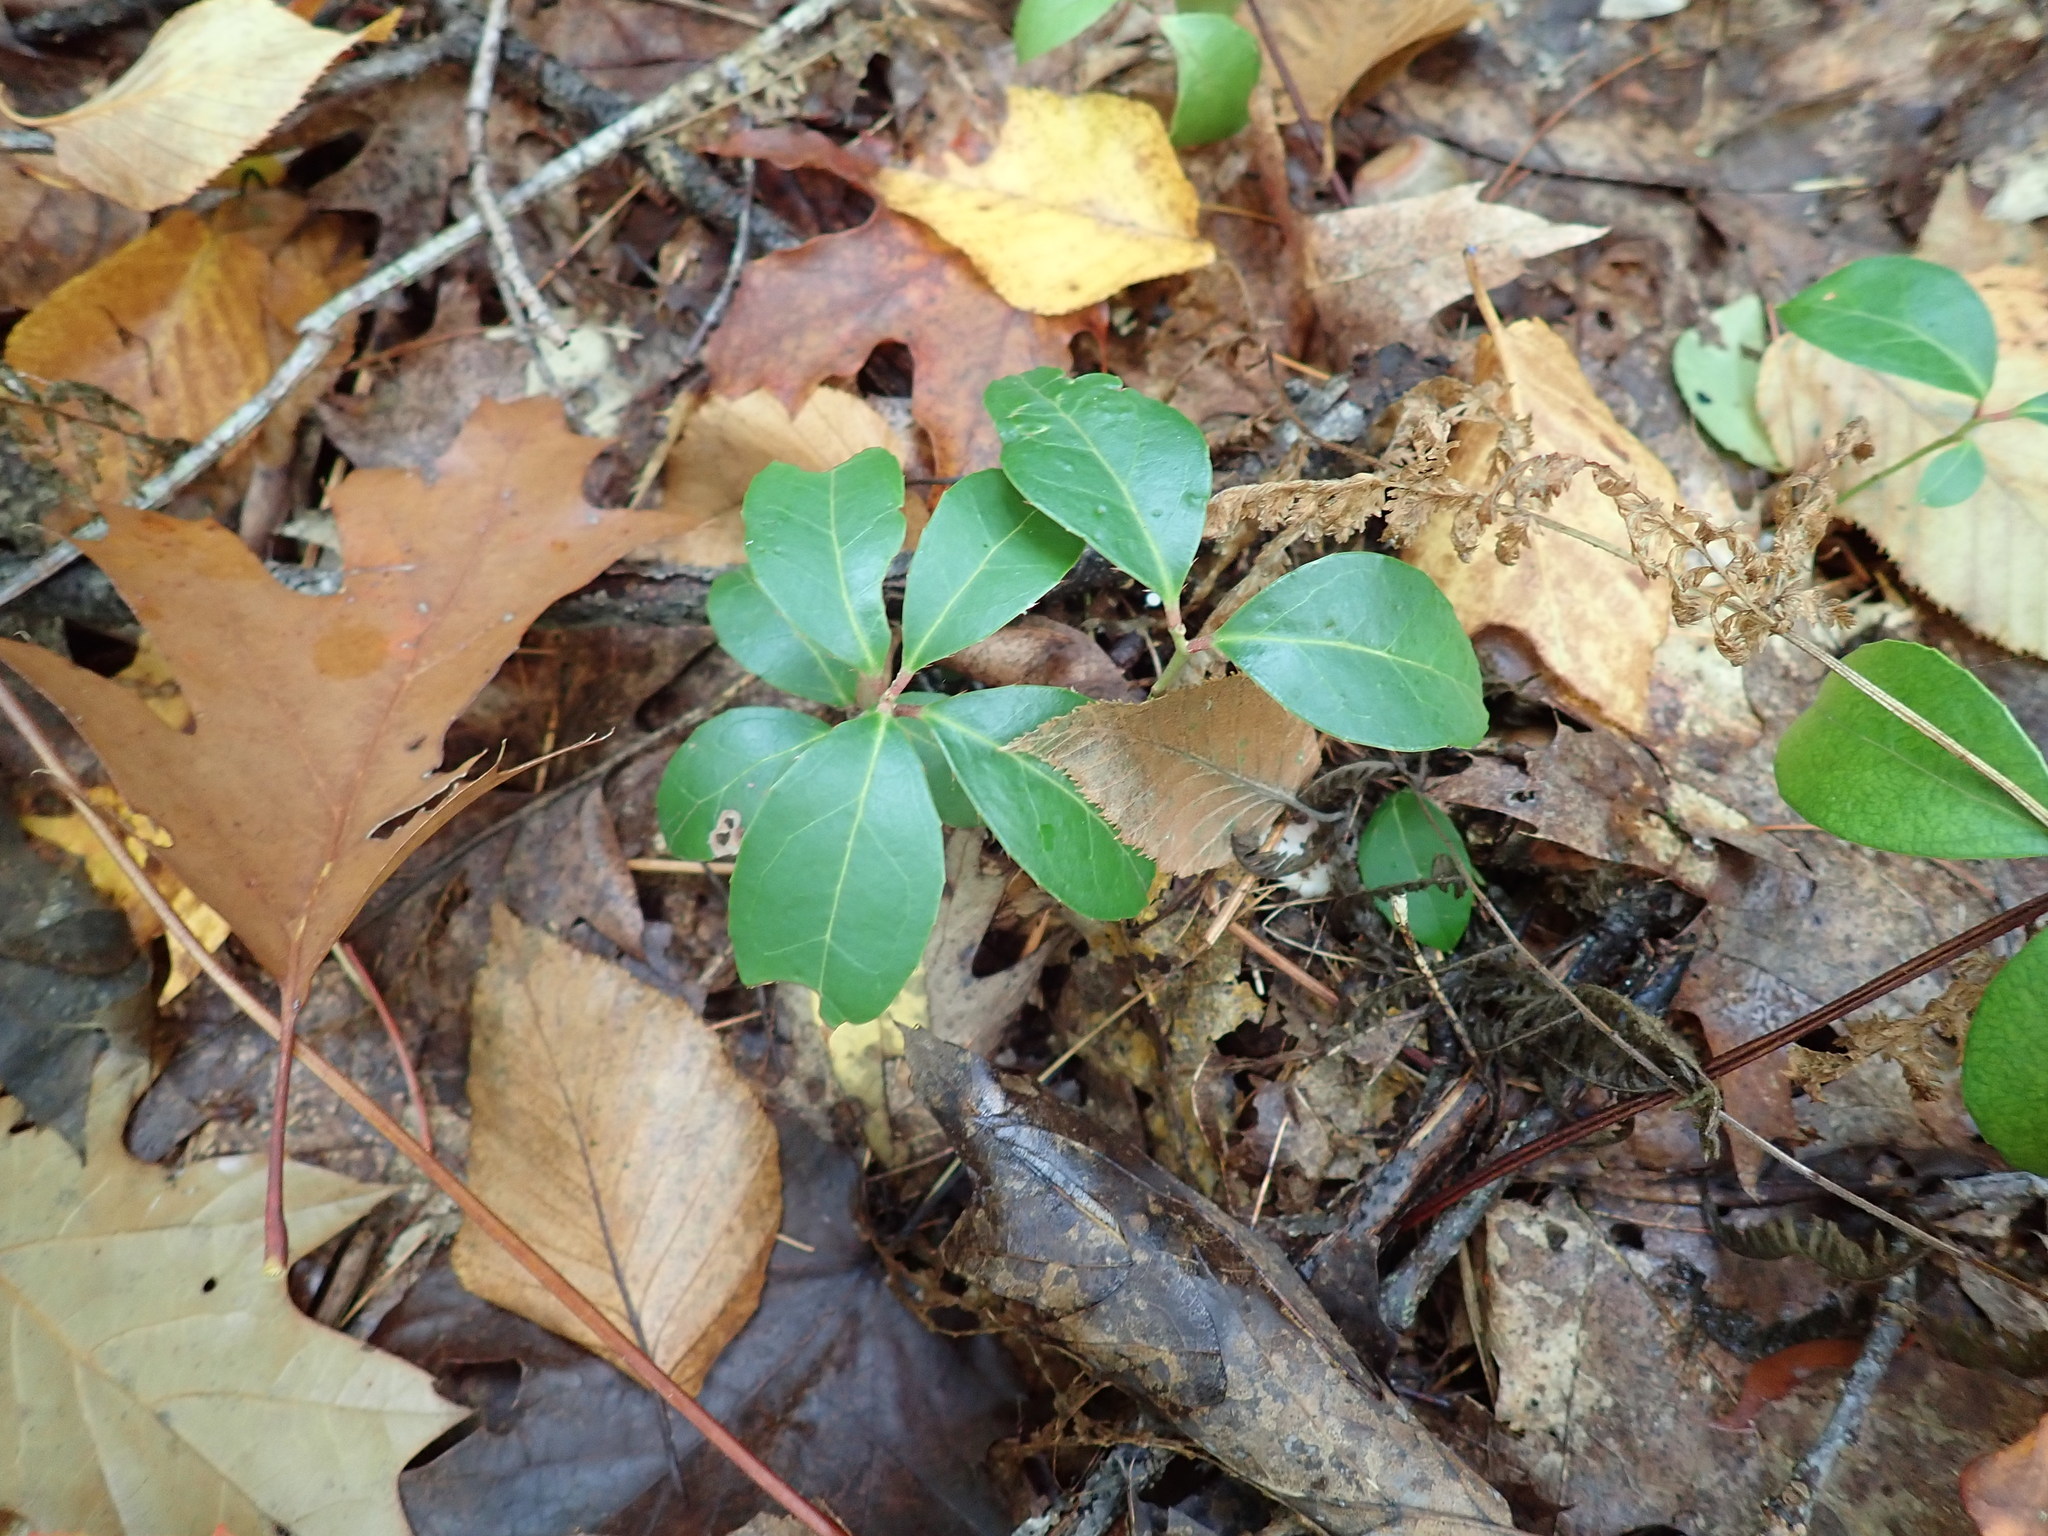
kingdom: Plantae
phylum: Tracheophyta
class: Magnoliopsida
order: Ericales
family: Ericaceae
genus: Gaultheria
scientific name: Gaultheria procumbens
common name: Checkerberry
